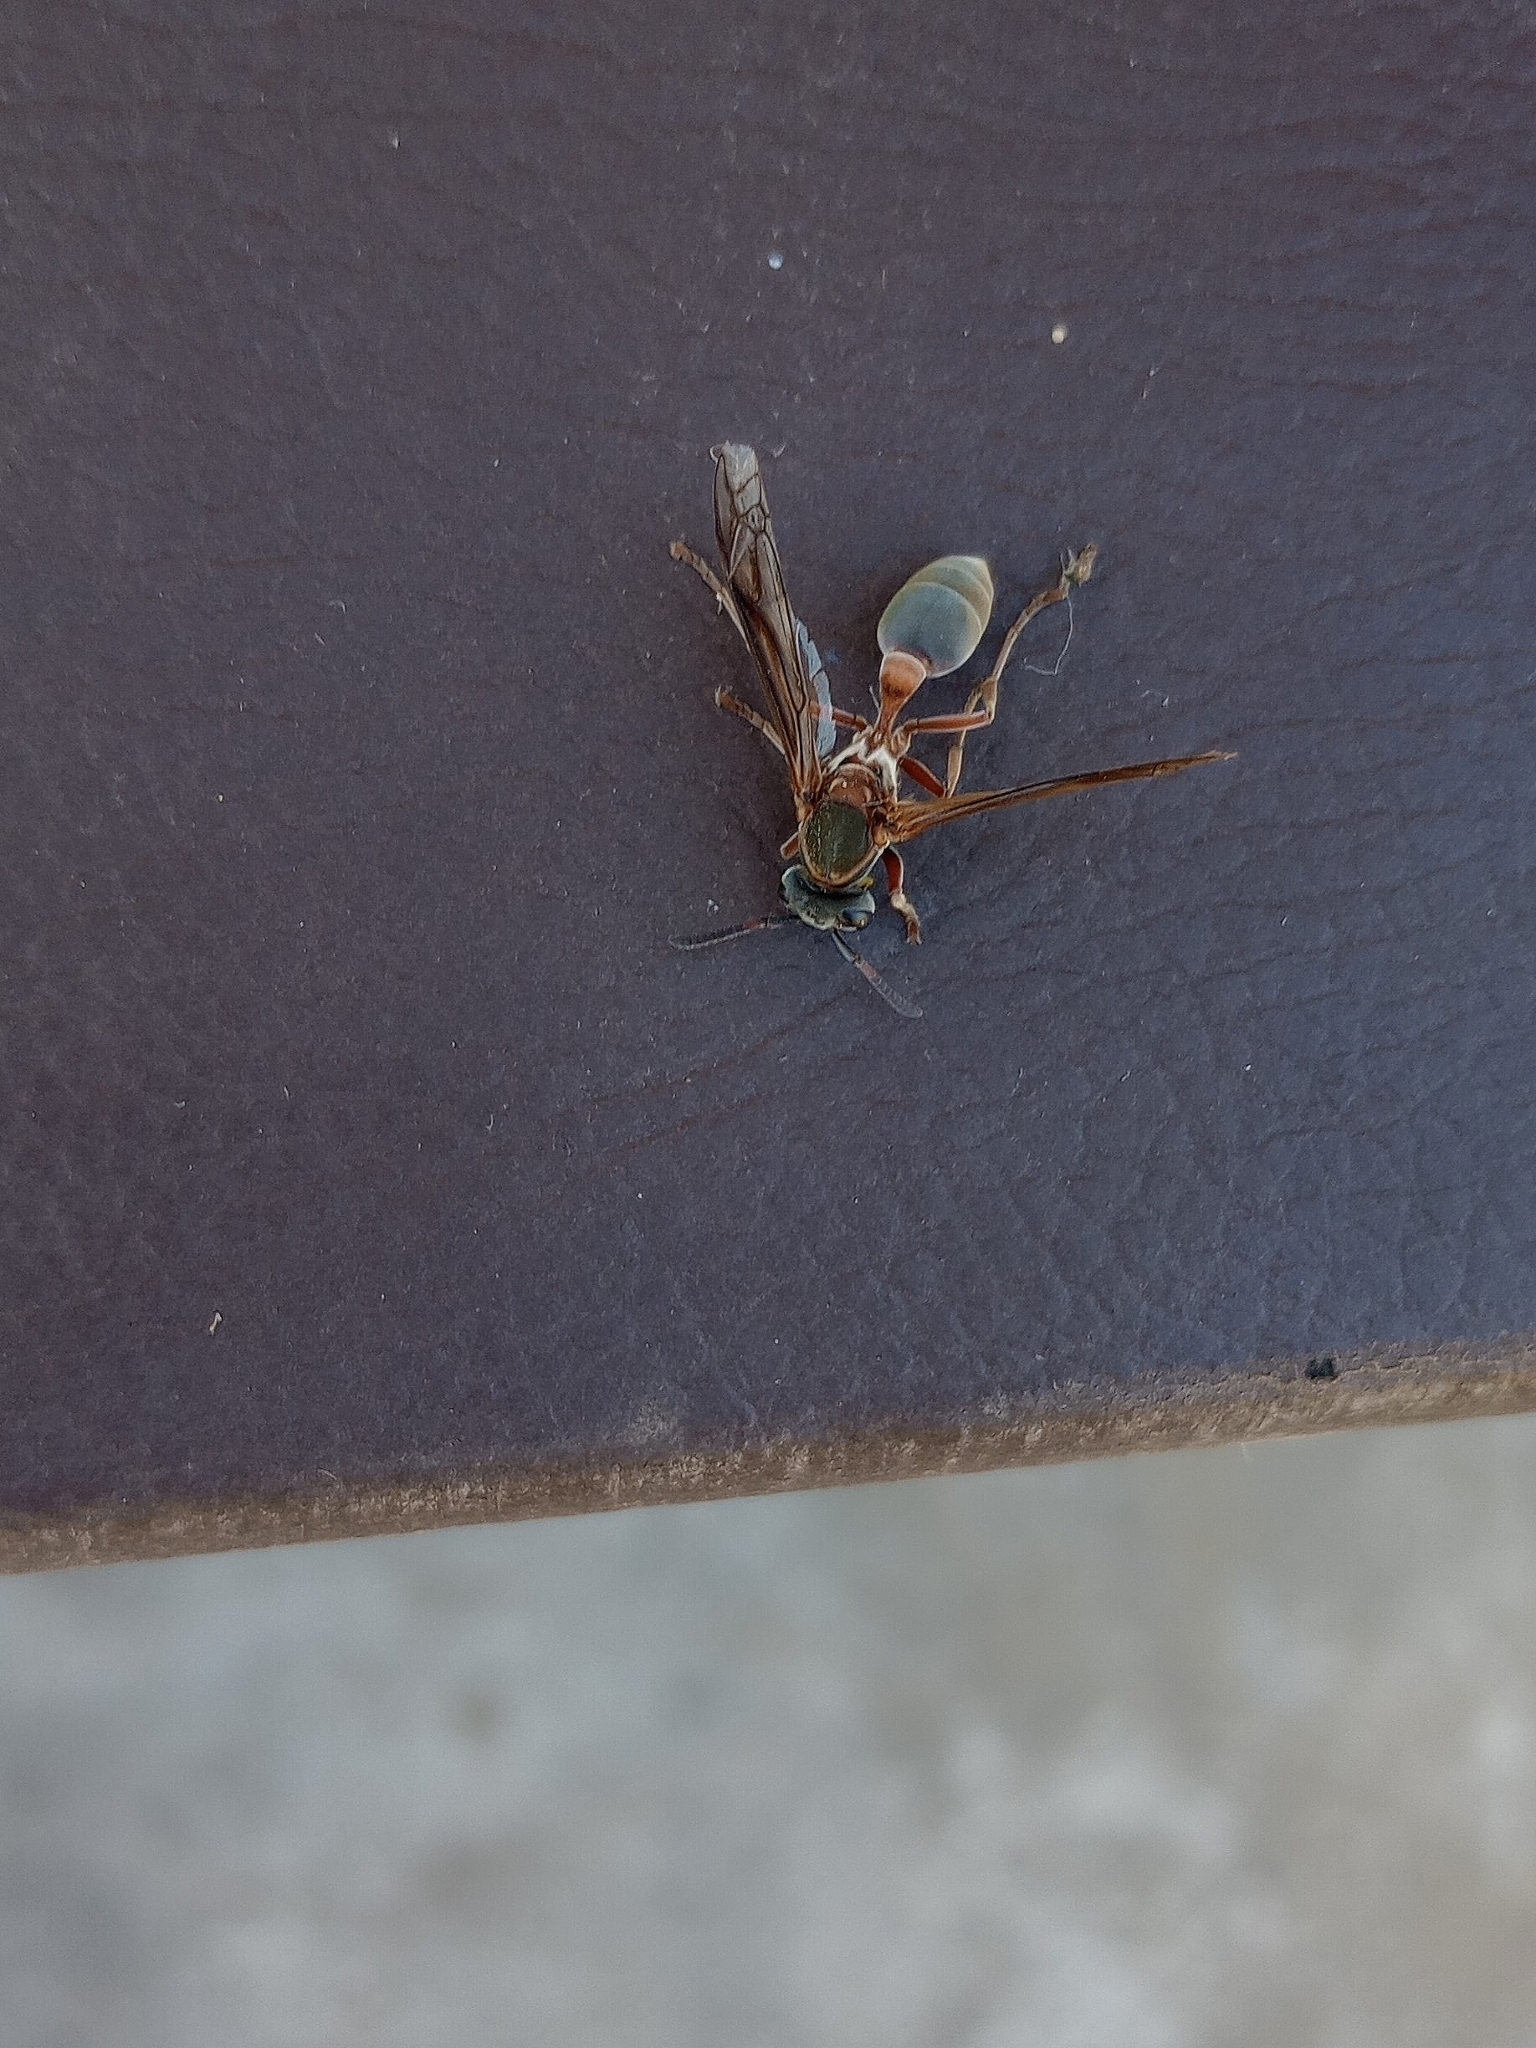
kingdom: Animalia
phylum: Arthropoda
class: Insecta
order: Hymenoptera
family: Eumenidae
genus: Polybia
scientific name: Polybia sericea
